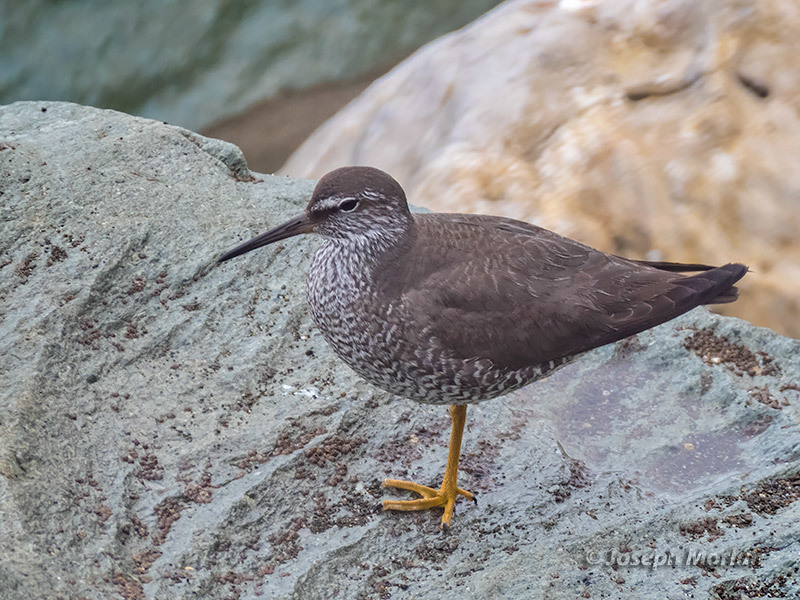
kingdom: Animalia
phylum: Chordata
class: Aves
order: Charadriiformes
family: Scolopacidae
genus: Tringa
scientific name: Tringa incana
